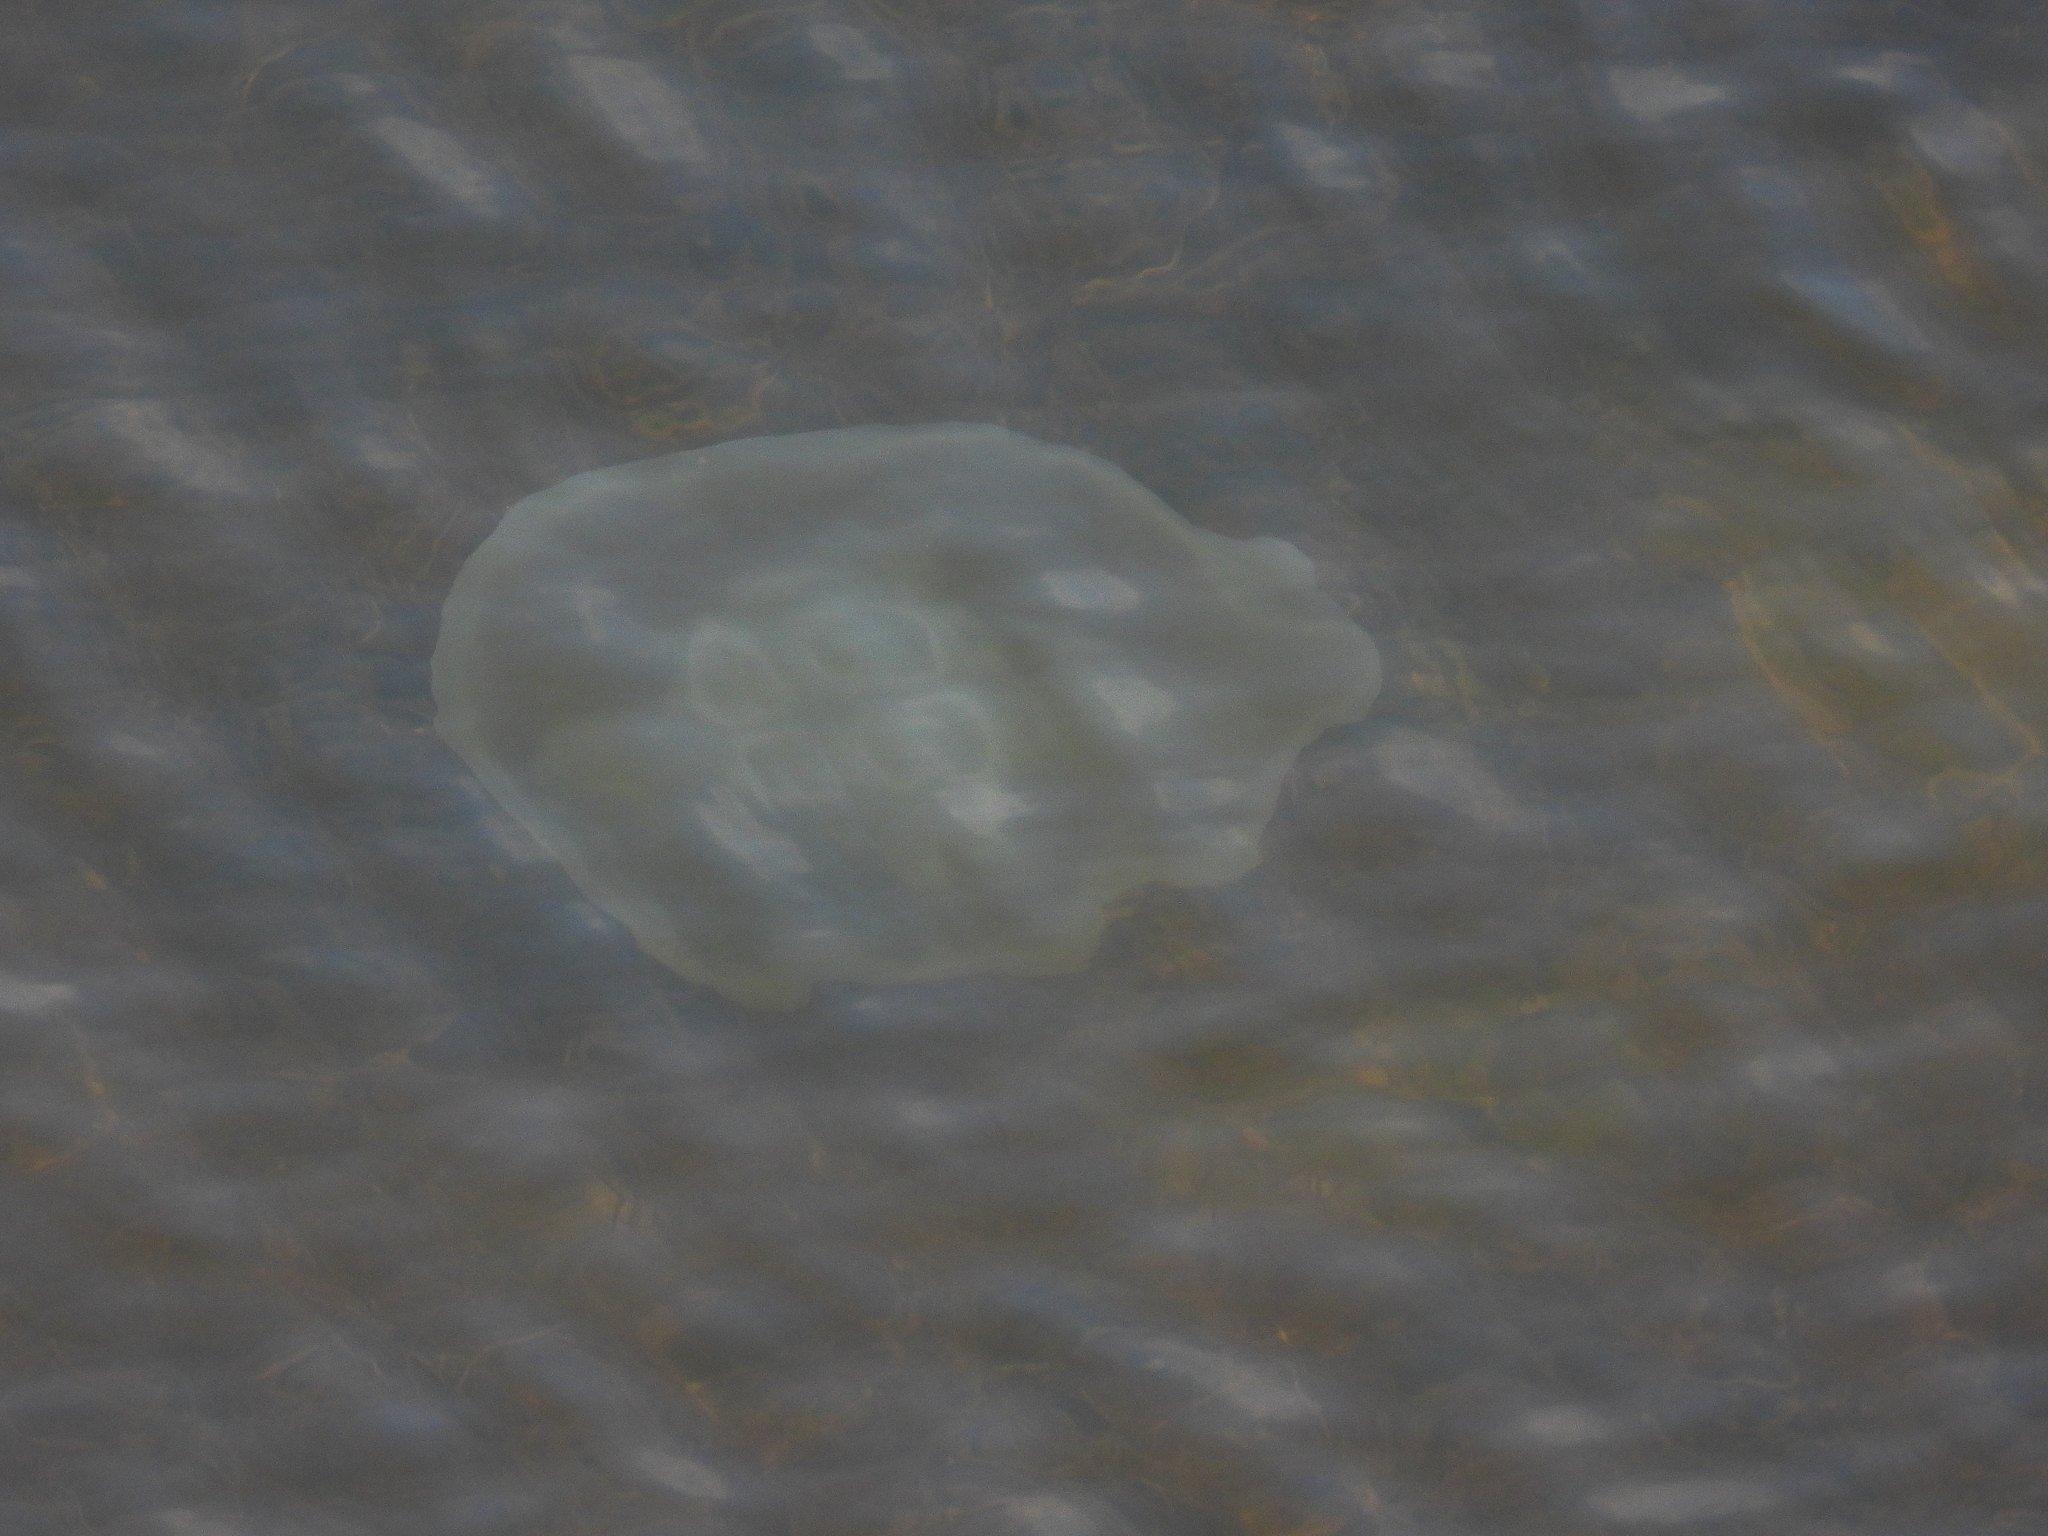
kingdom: Animalia
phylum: Cnidaria
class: Scyphozoa
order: Semaeostomeae
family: Ulmaridae
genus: Aurelia
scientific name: Aurelia coerulea
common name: Moon jellyfish
